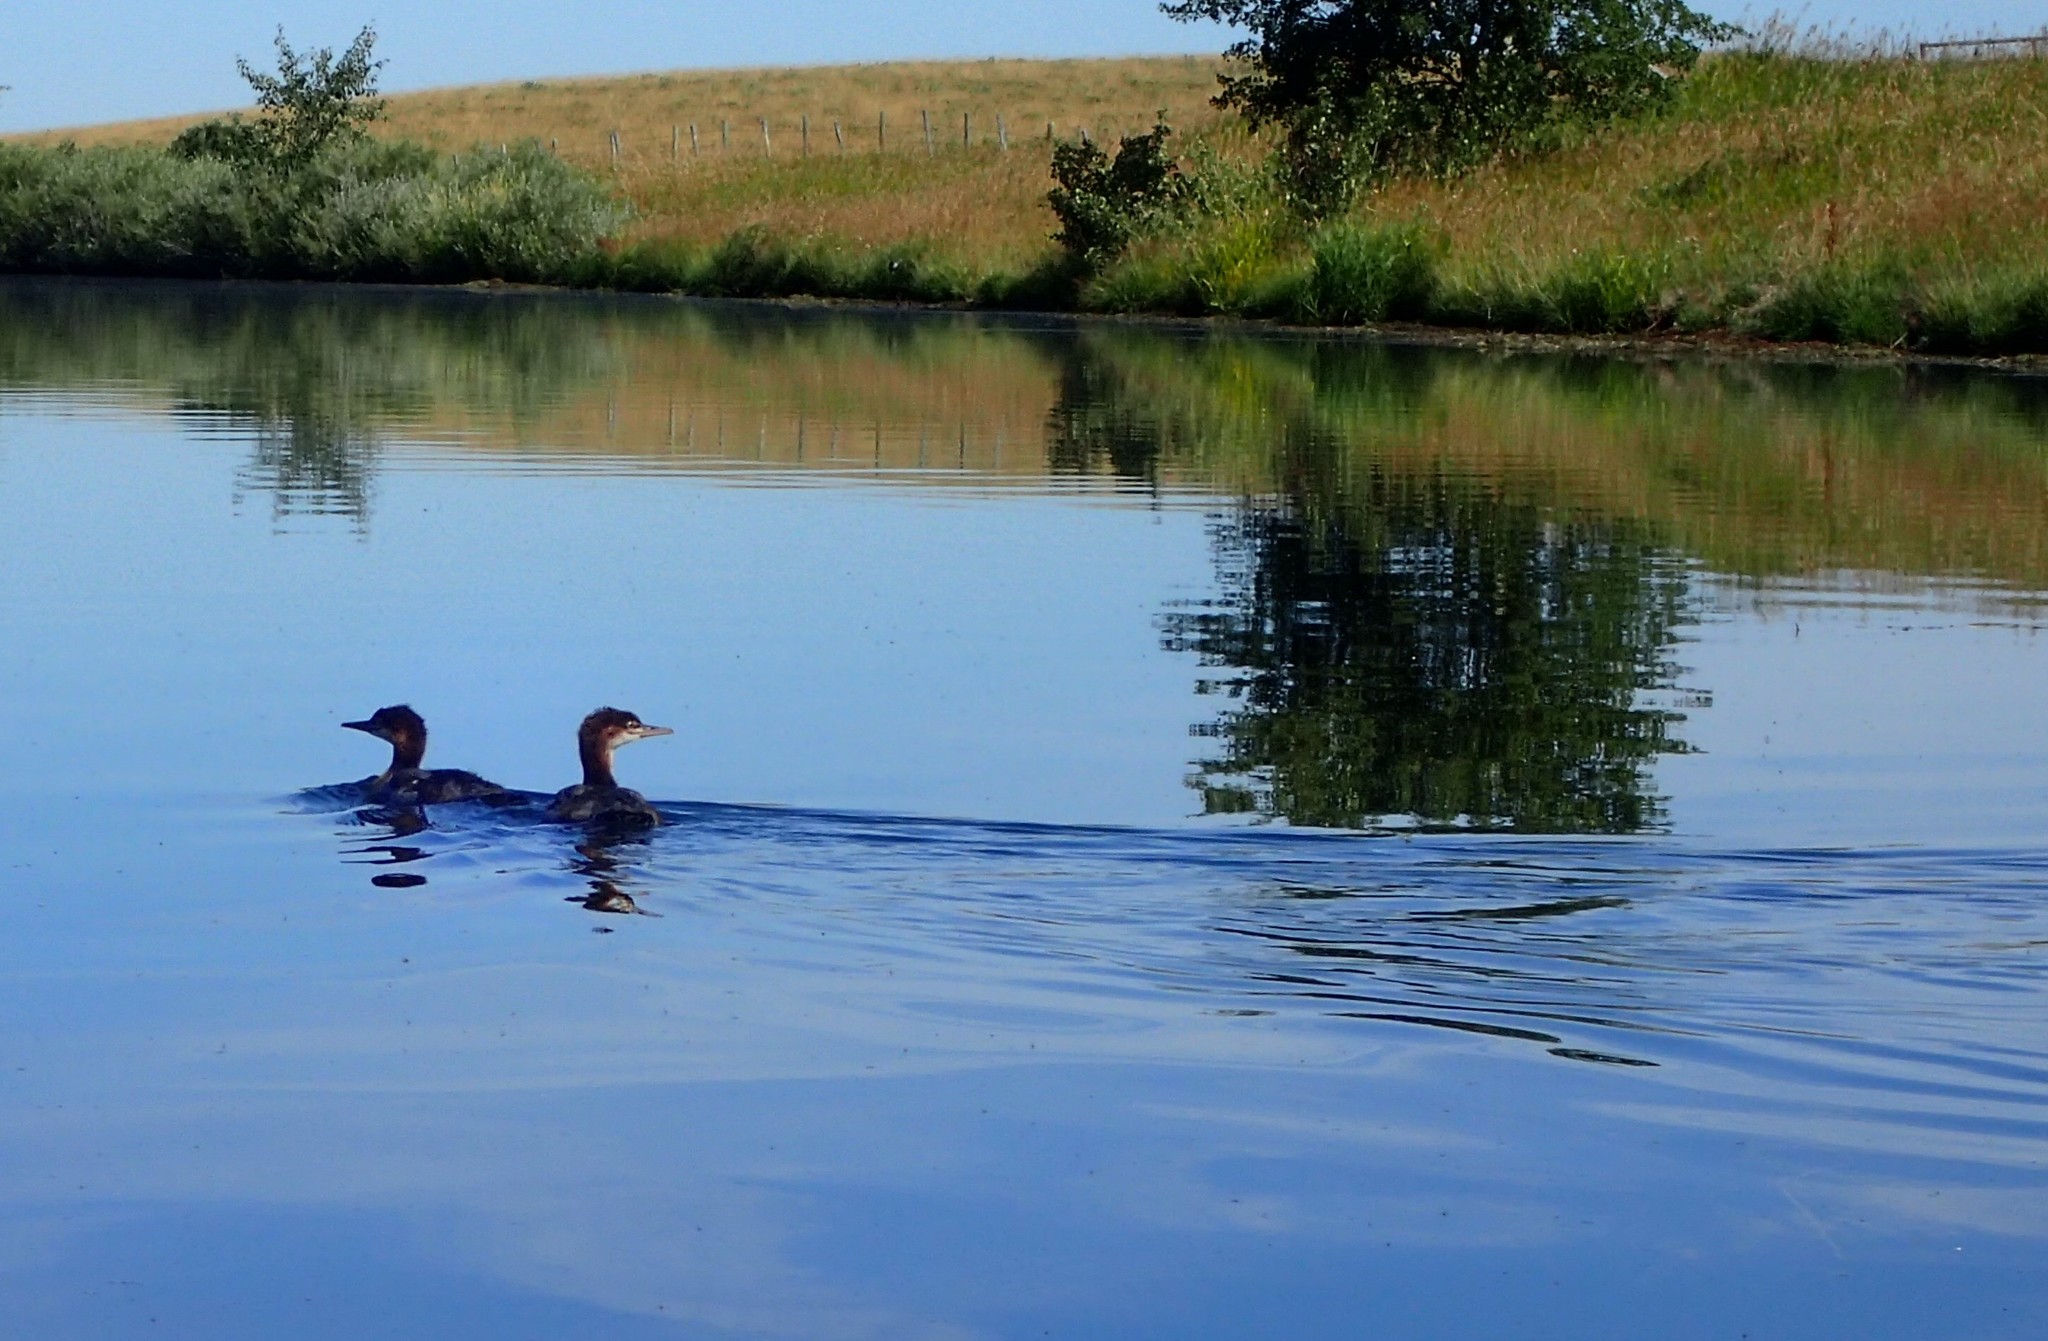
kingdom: Animalia
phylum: Chordata
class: Aves
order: Anseriformes
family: Anatidae
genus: Mergus
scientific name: Mergus merganser
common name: Common merganser
